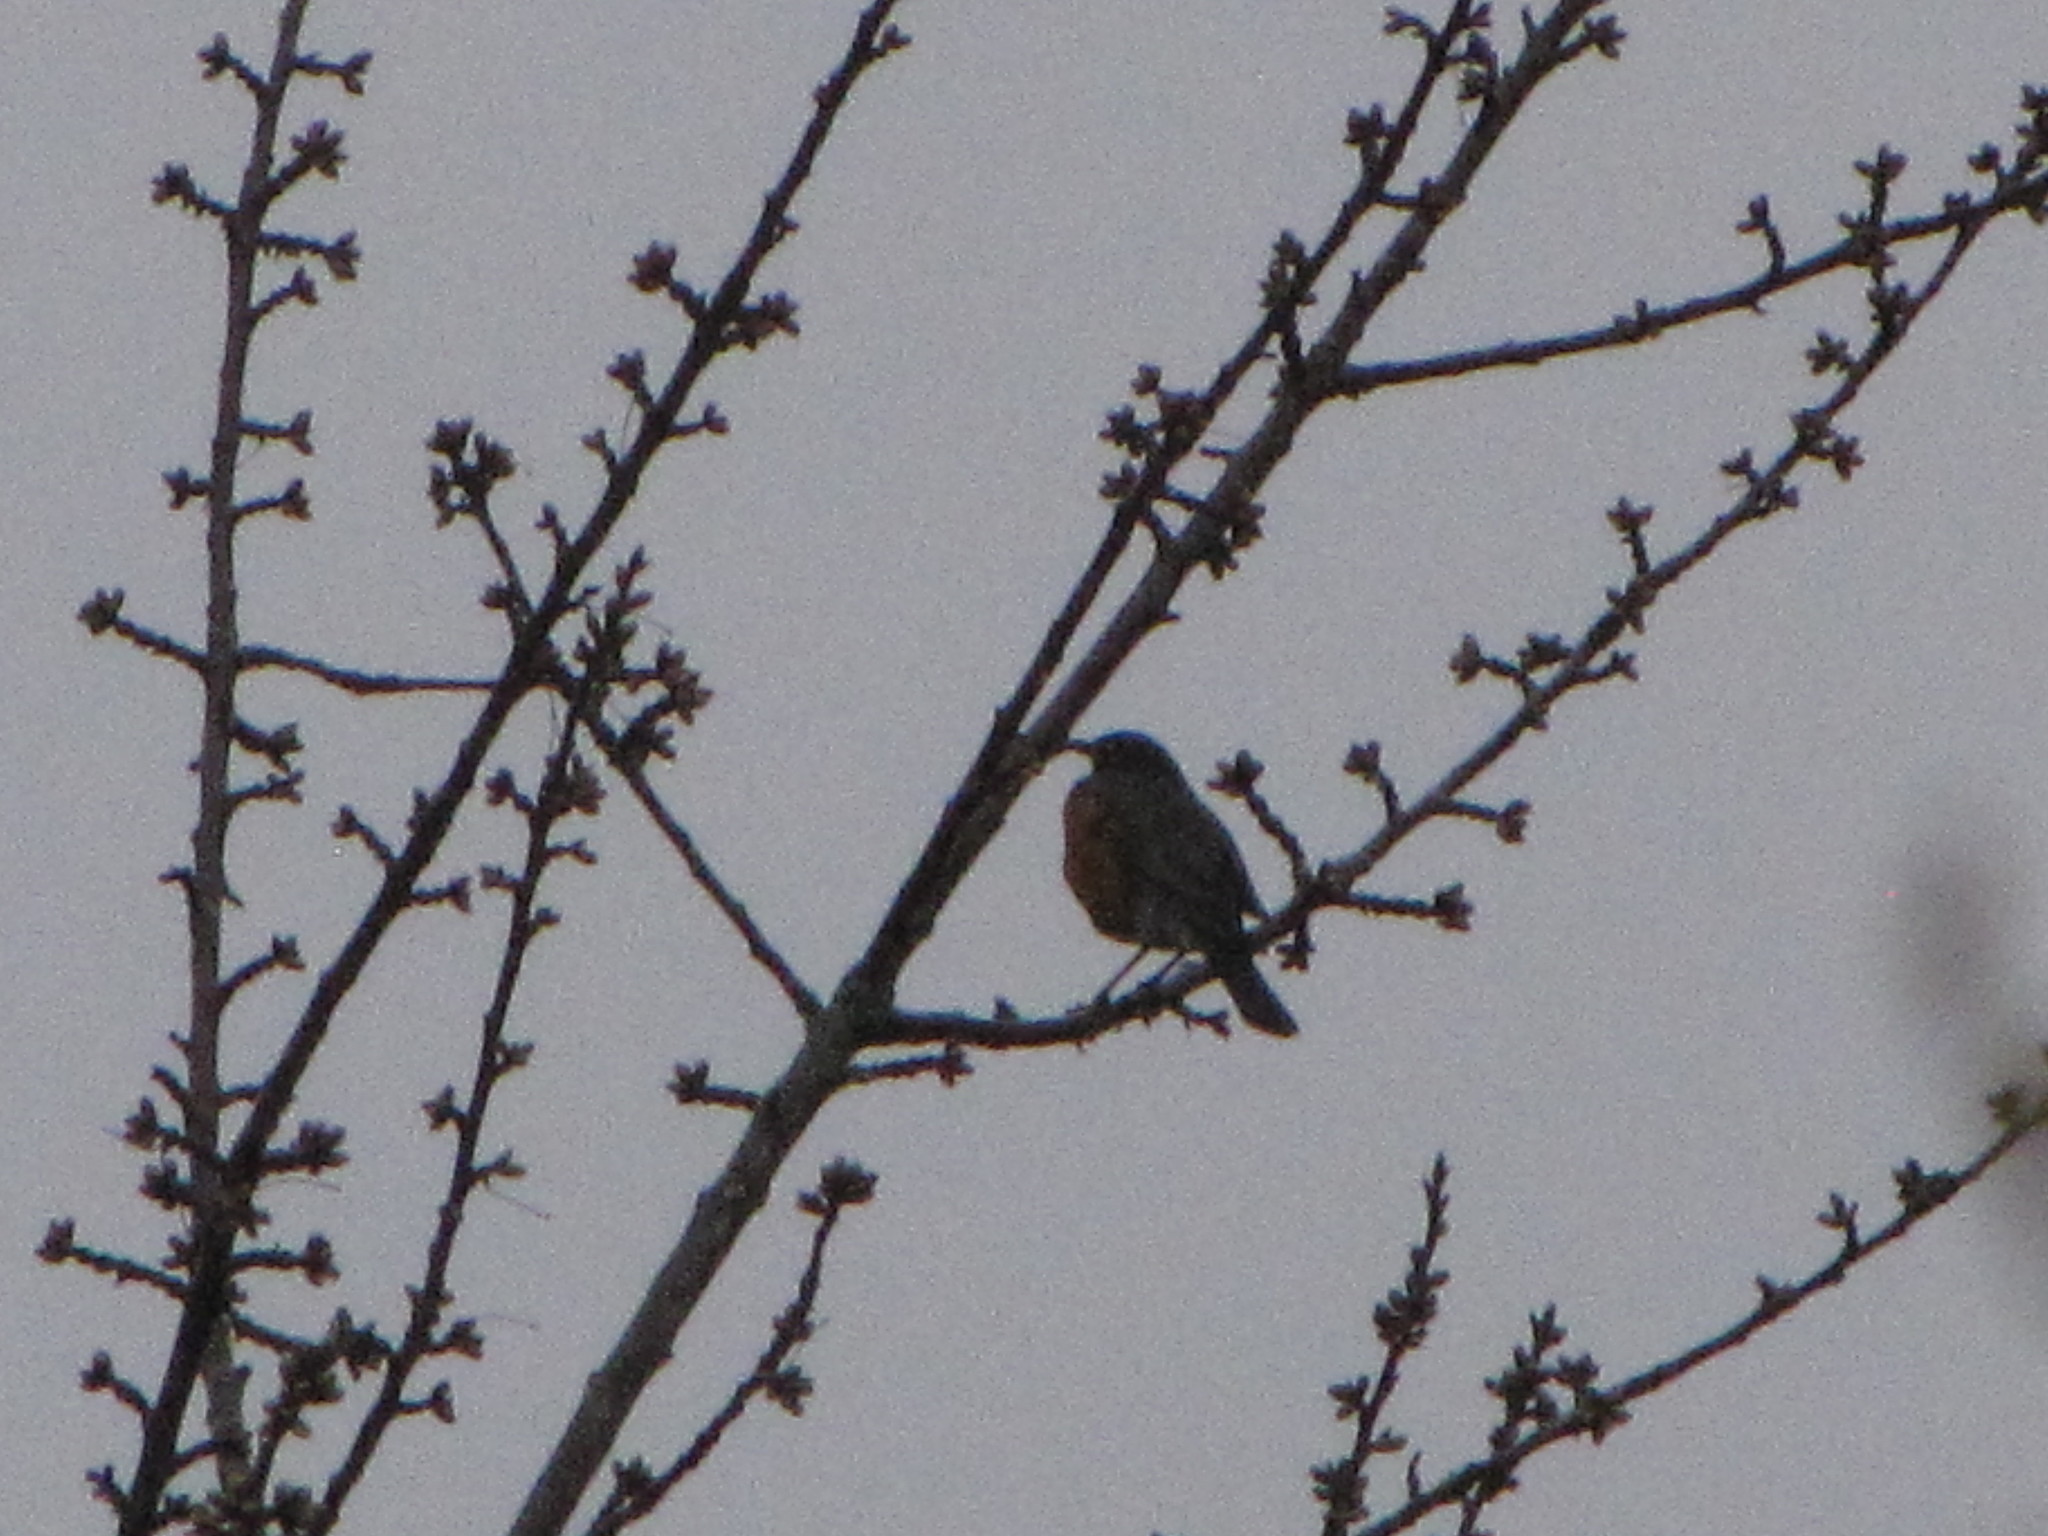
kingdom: Animalia
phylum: Chordata
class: Aves
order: Passeriformes
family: Turdidae
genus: Turdus
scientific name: Turdus migratorius
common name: American robin
